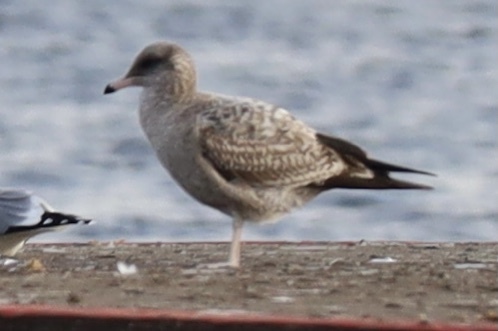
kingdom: Animalia
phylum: Chordata
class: Aves
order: Charadriiformes
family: Laridae
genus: Larus
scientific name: Larus californicus
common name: California gull
